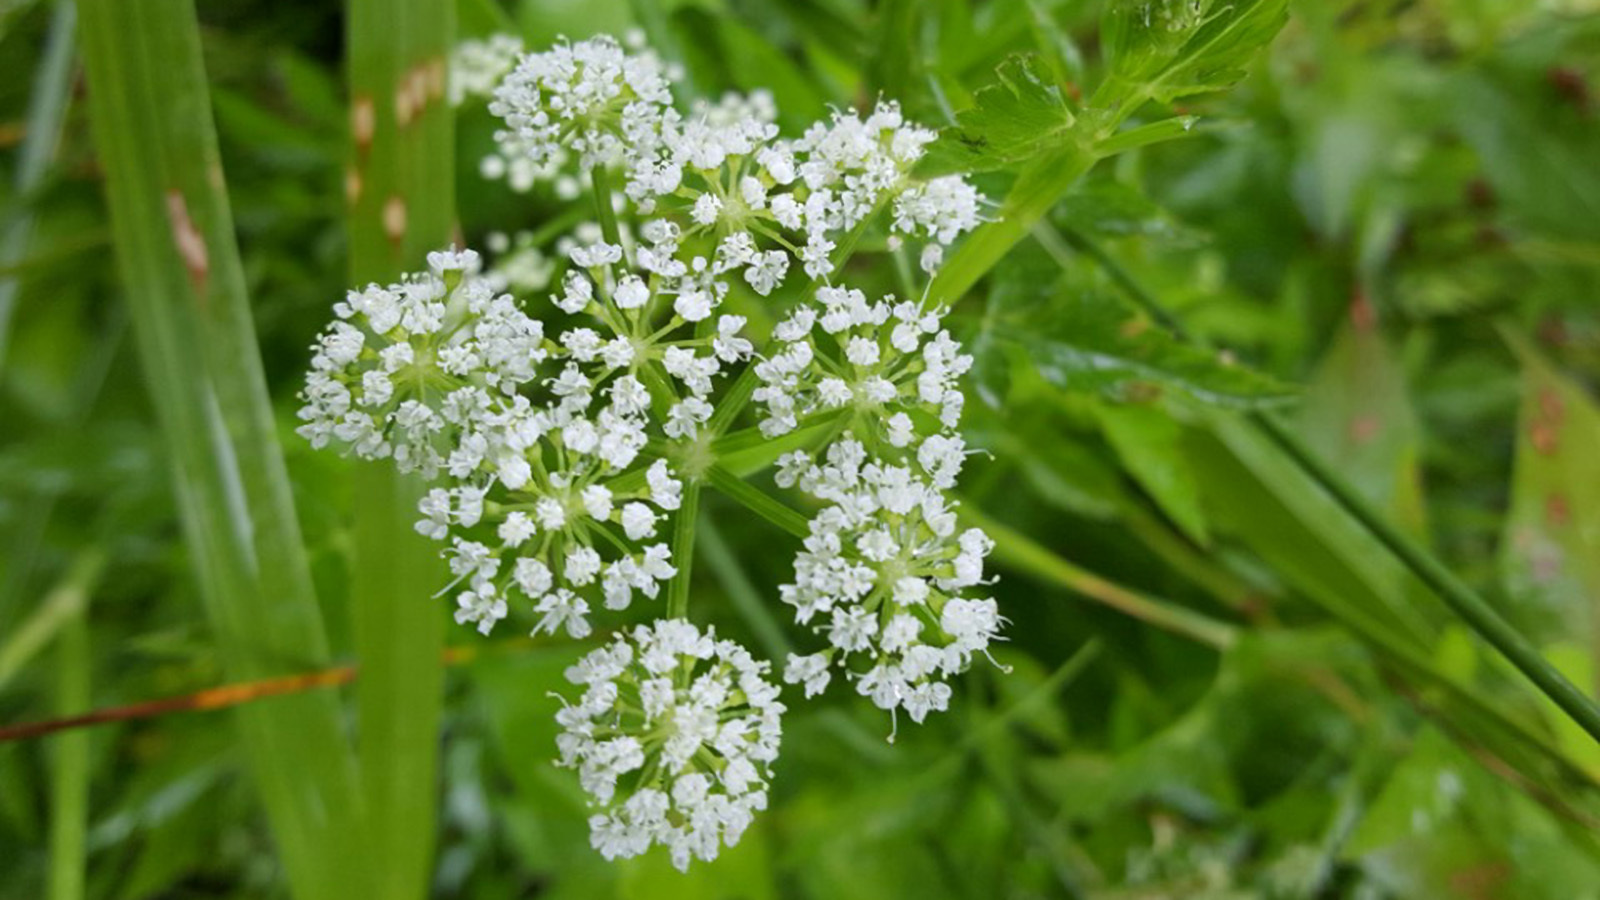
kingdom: Plantae
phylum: Tracheophyta
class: Magnoliopsida
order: Apiales
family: Apiaceae
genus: Oenanthe
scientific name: Oenanthe javanica
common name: Java water-dropwort
